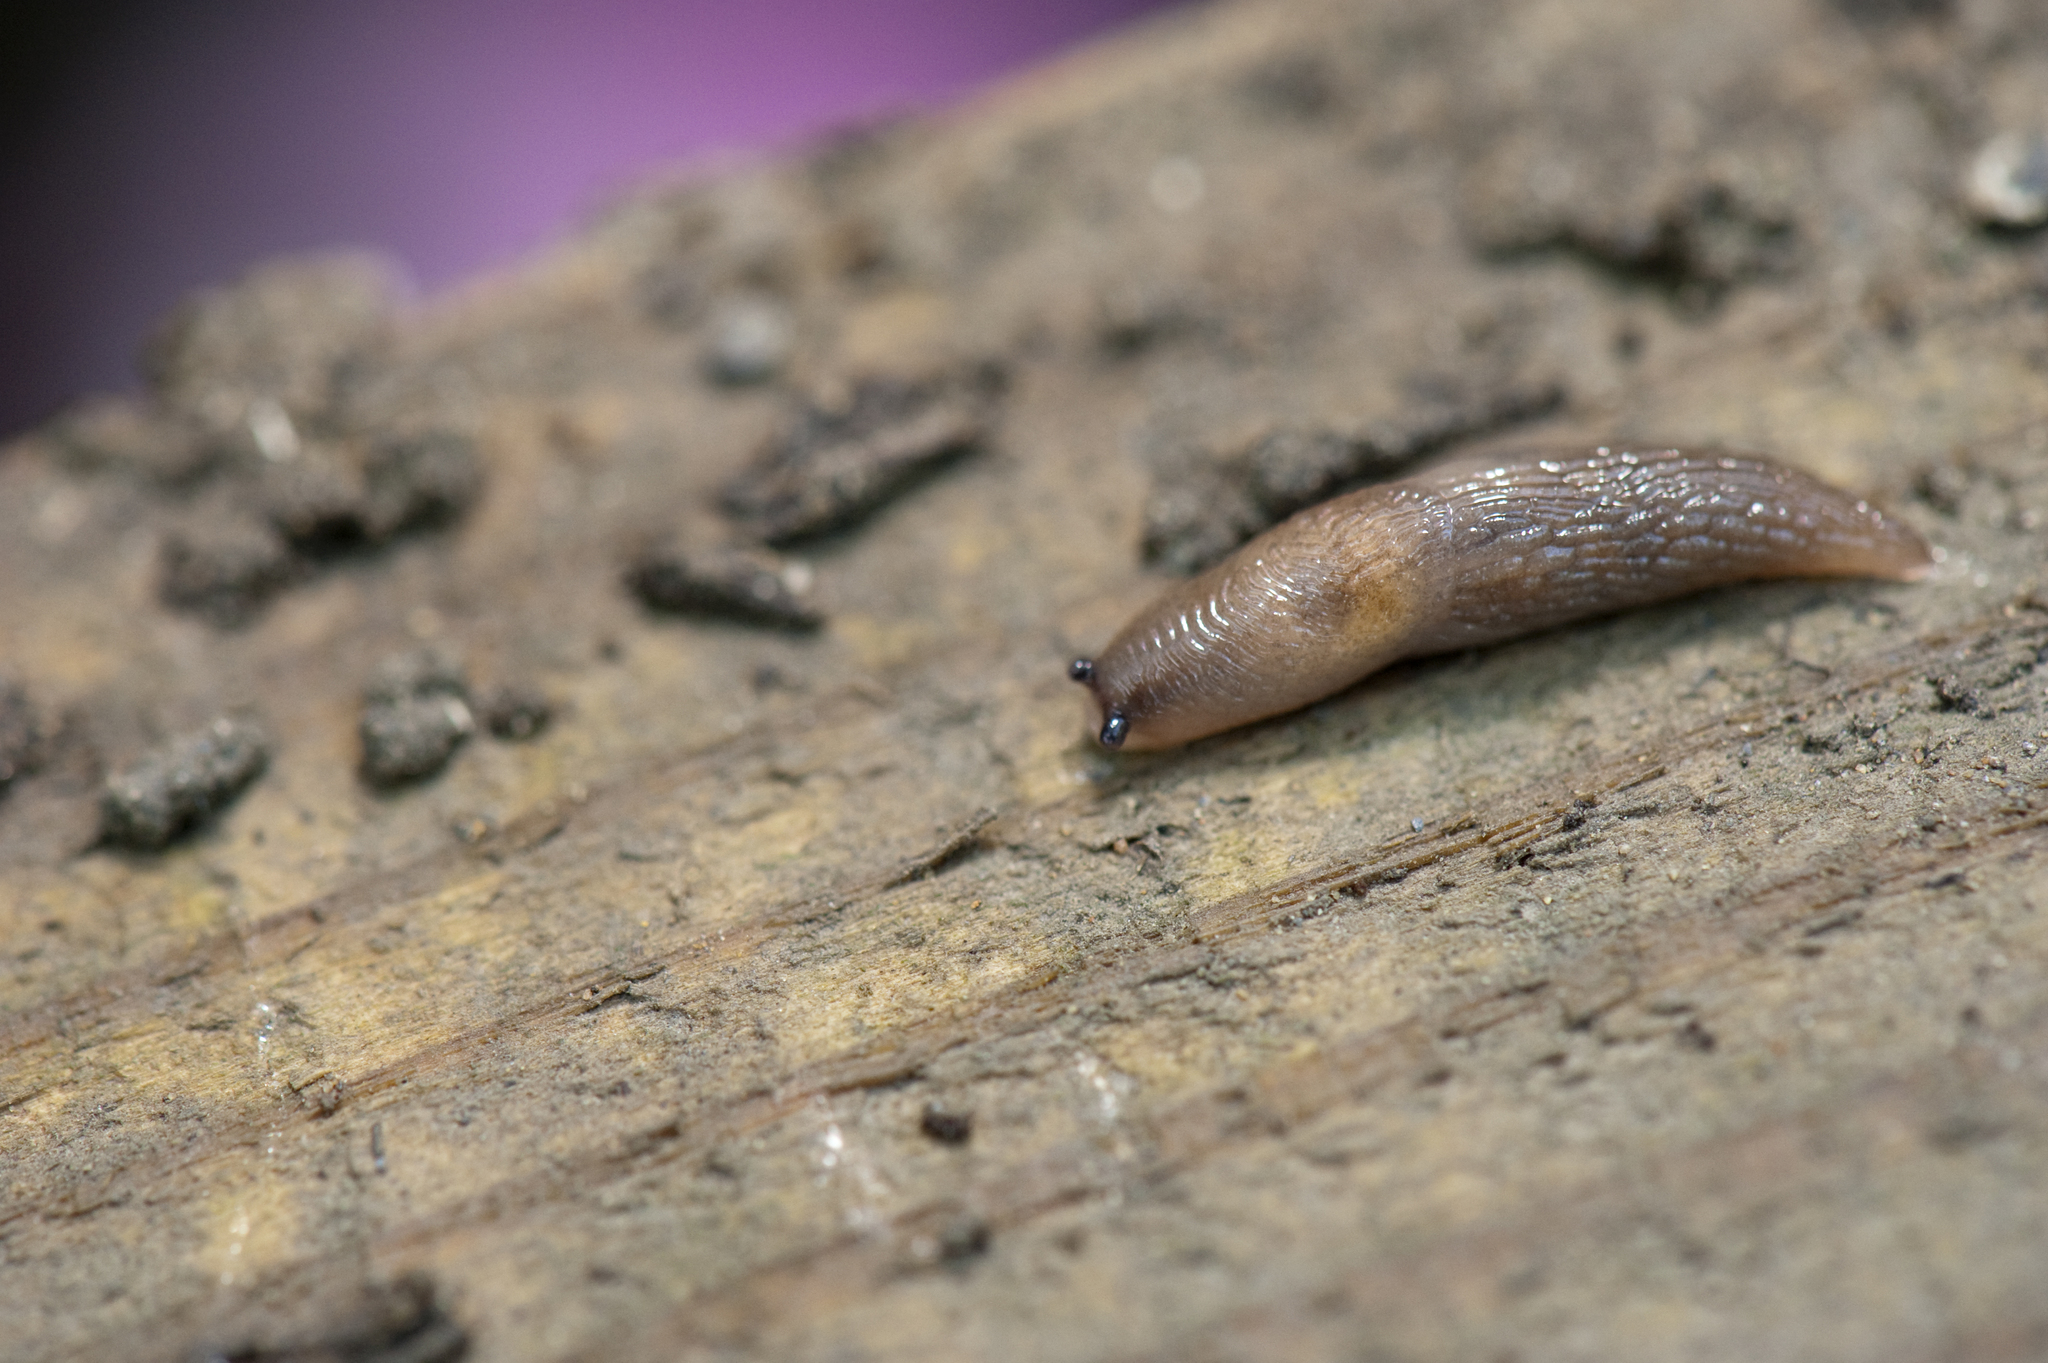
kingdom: Animalia
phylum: Mollusca
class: Gastropoda
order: Stylommatophora
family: Agriolimacidae
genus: Deroceras
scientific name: Deroceras laeve
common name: Marsh slug
